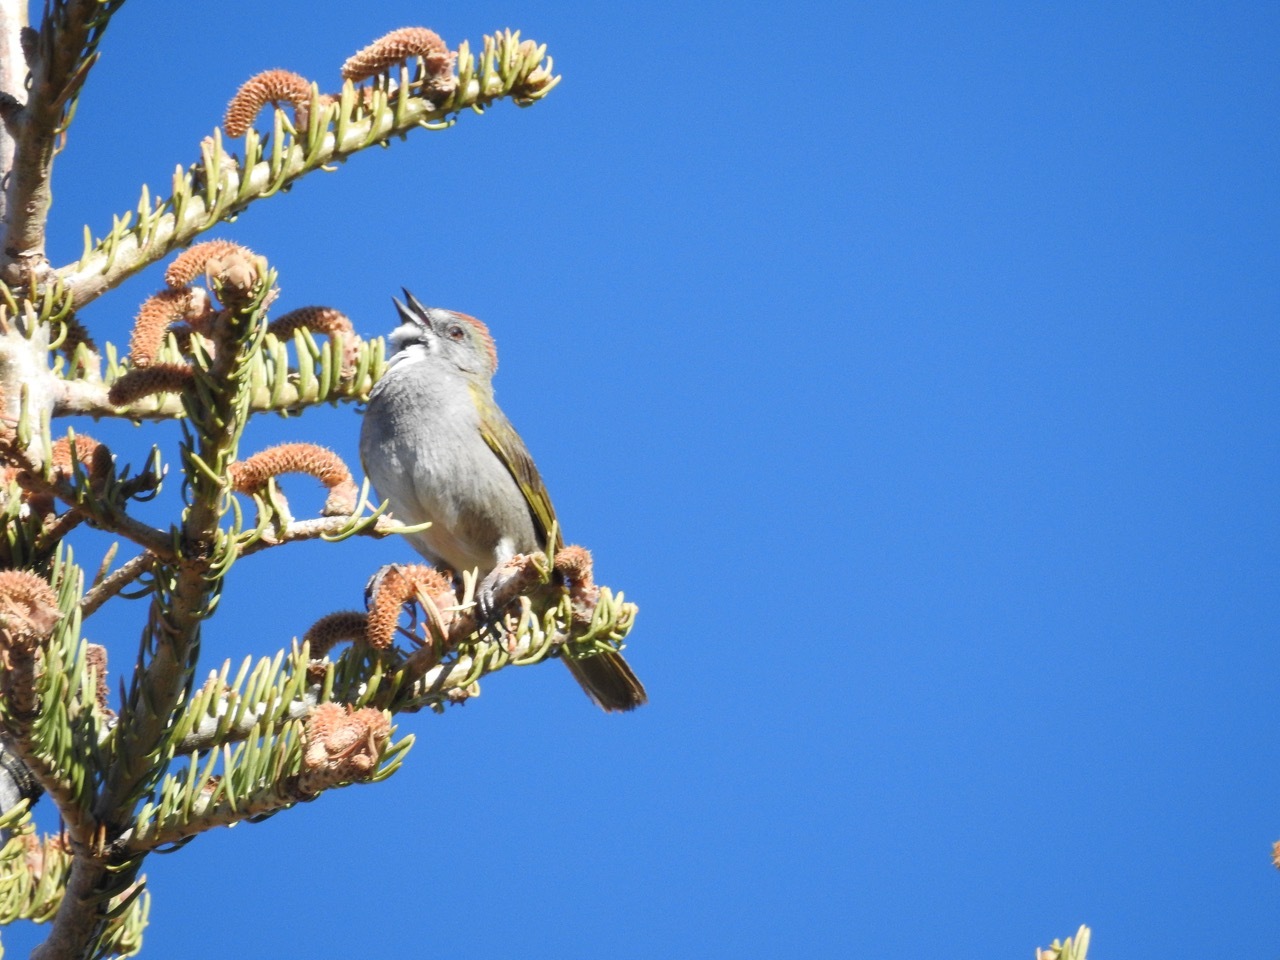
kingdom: Animalia
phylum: Chordata
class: Aves
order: Passeriformes
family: Passerellidae
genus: Pipilo
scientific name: Pipilo chlorurus
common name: Green-tailed towhee
